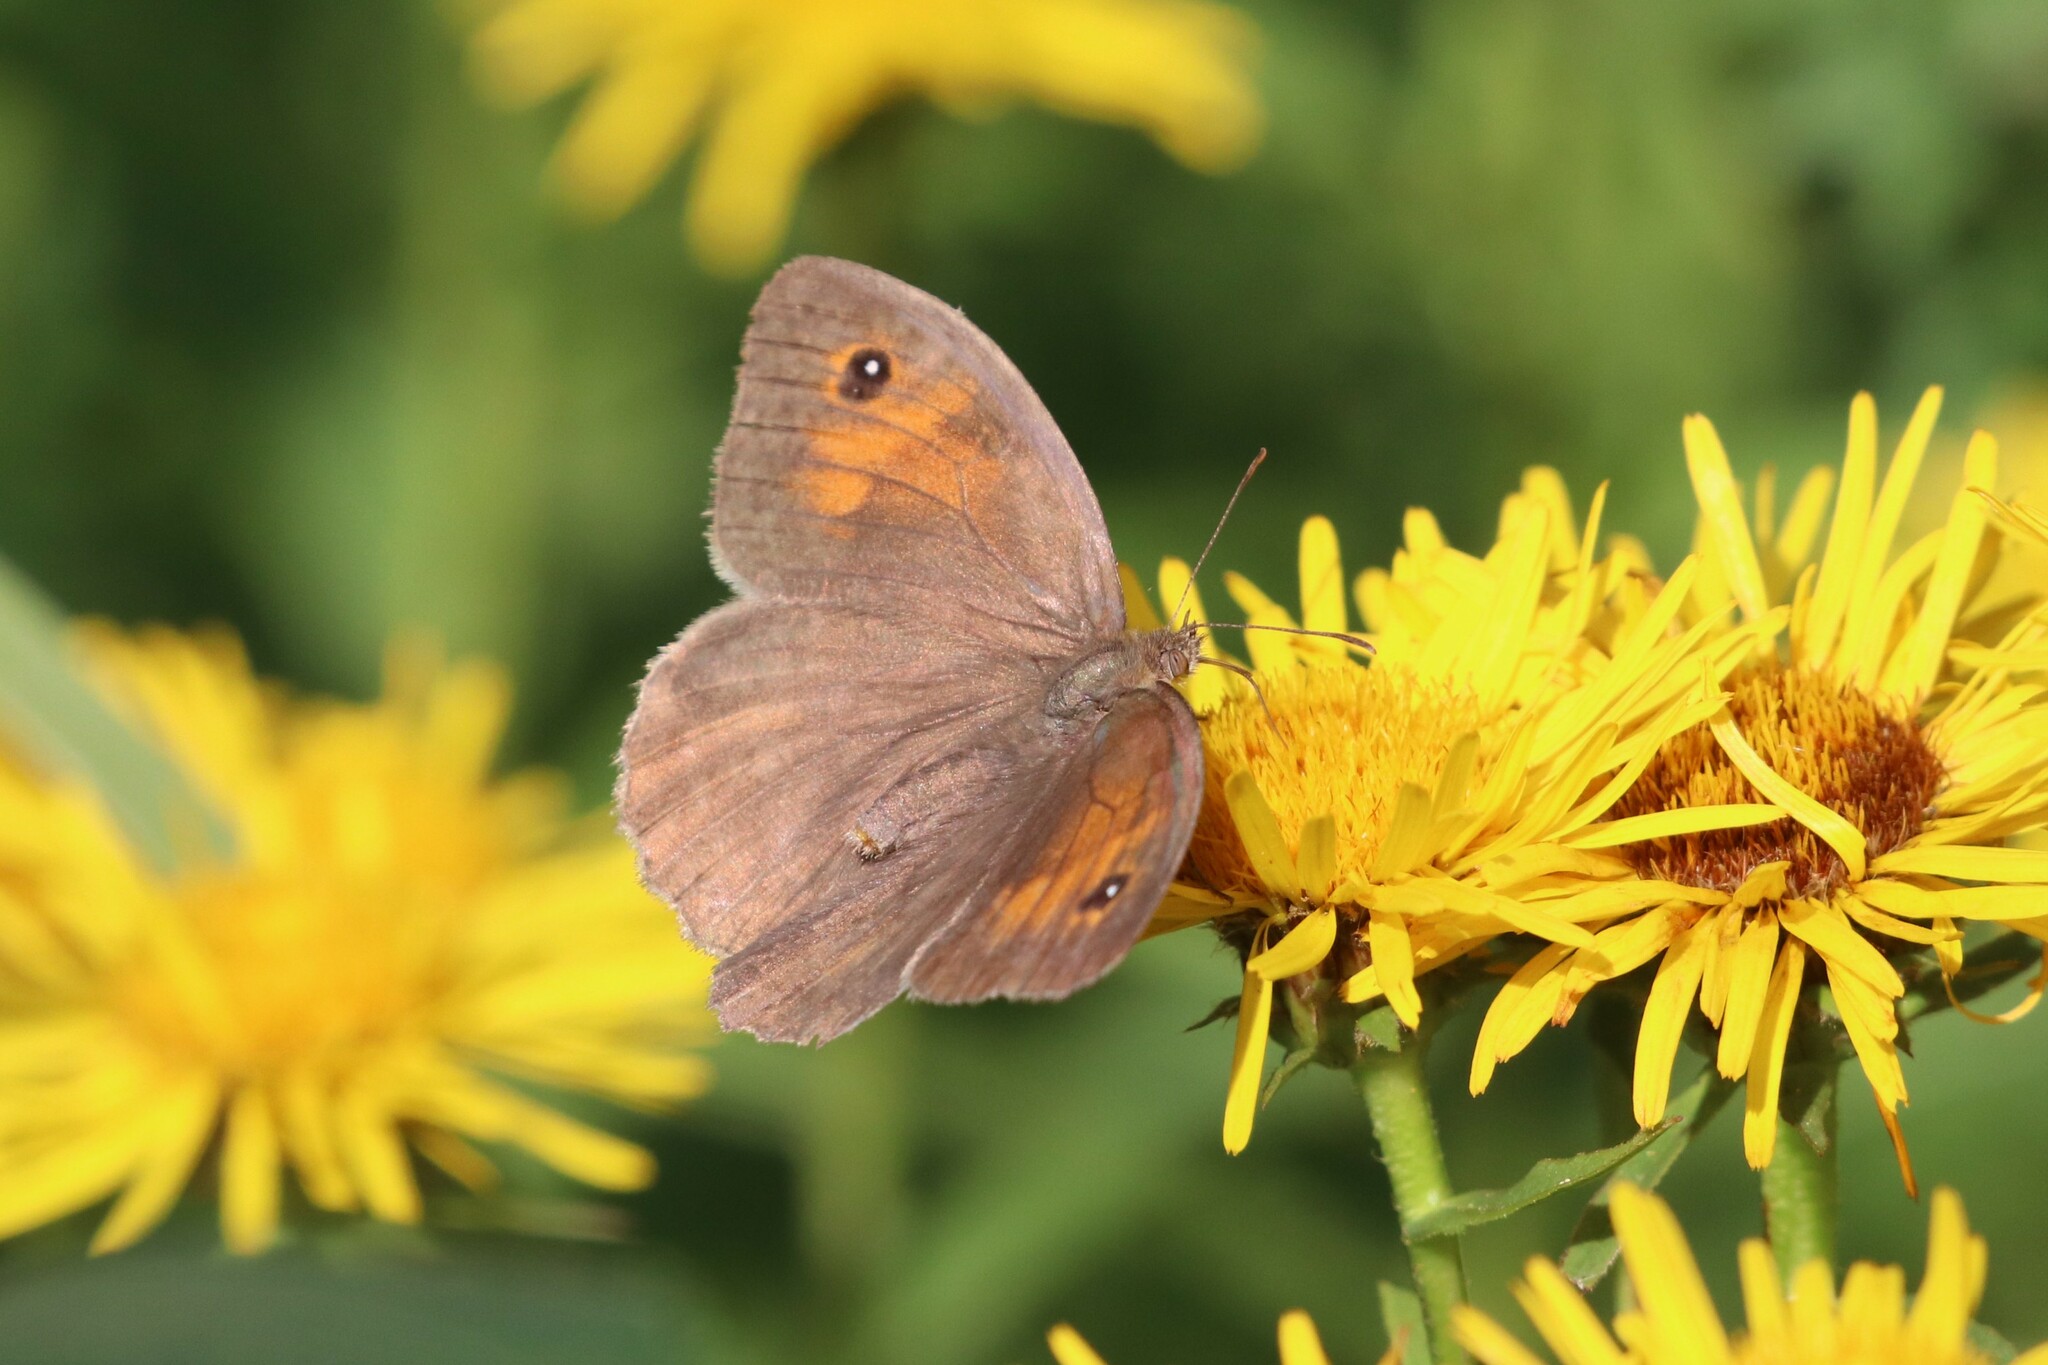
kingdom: Animalia
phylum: Arthropoda
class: Insecta
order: Lepidoptera
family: Nymphalidae
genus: Maniola
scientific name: Maniola jurtina
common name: Meadow brown
